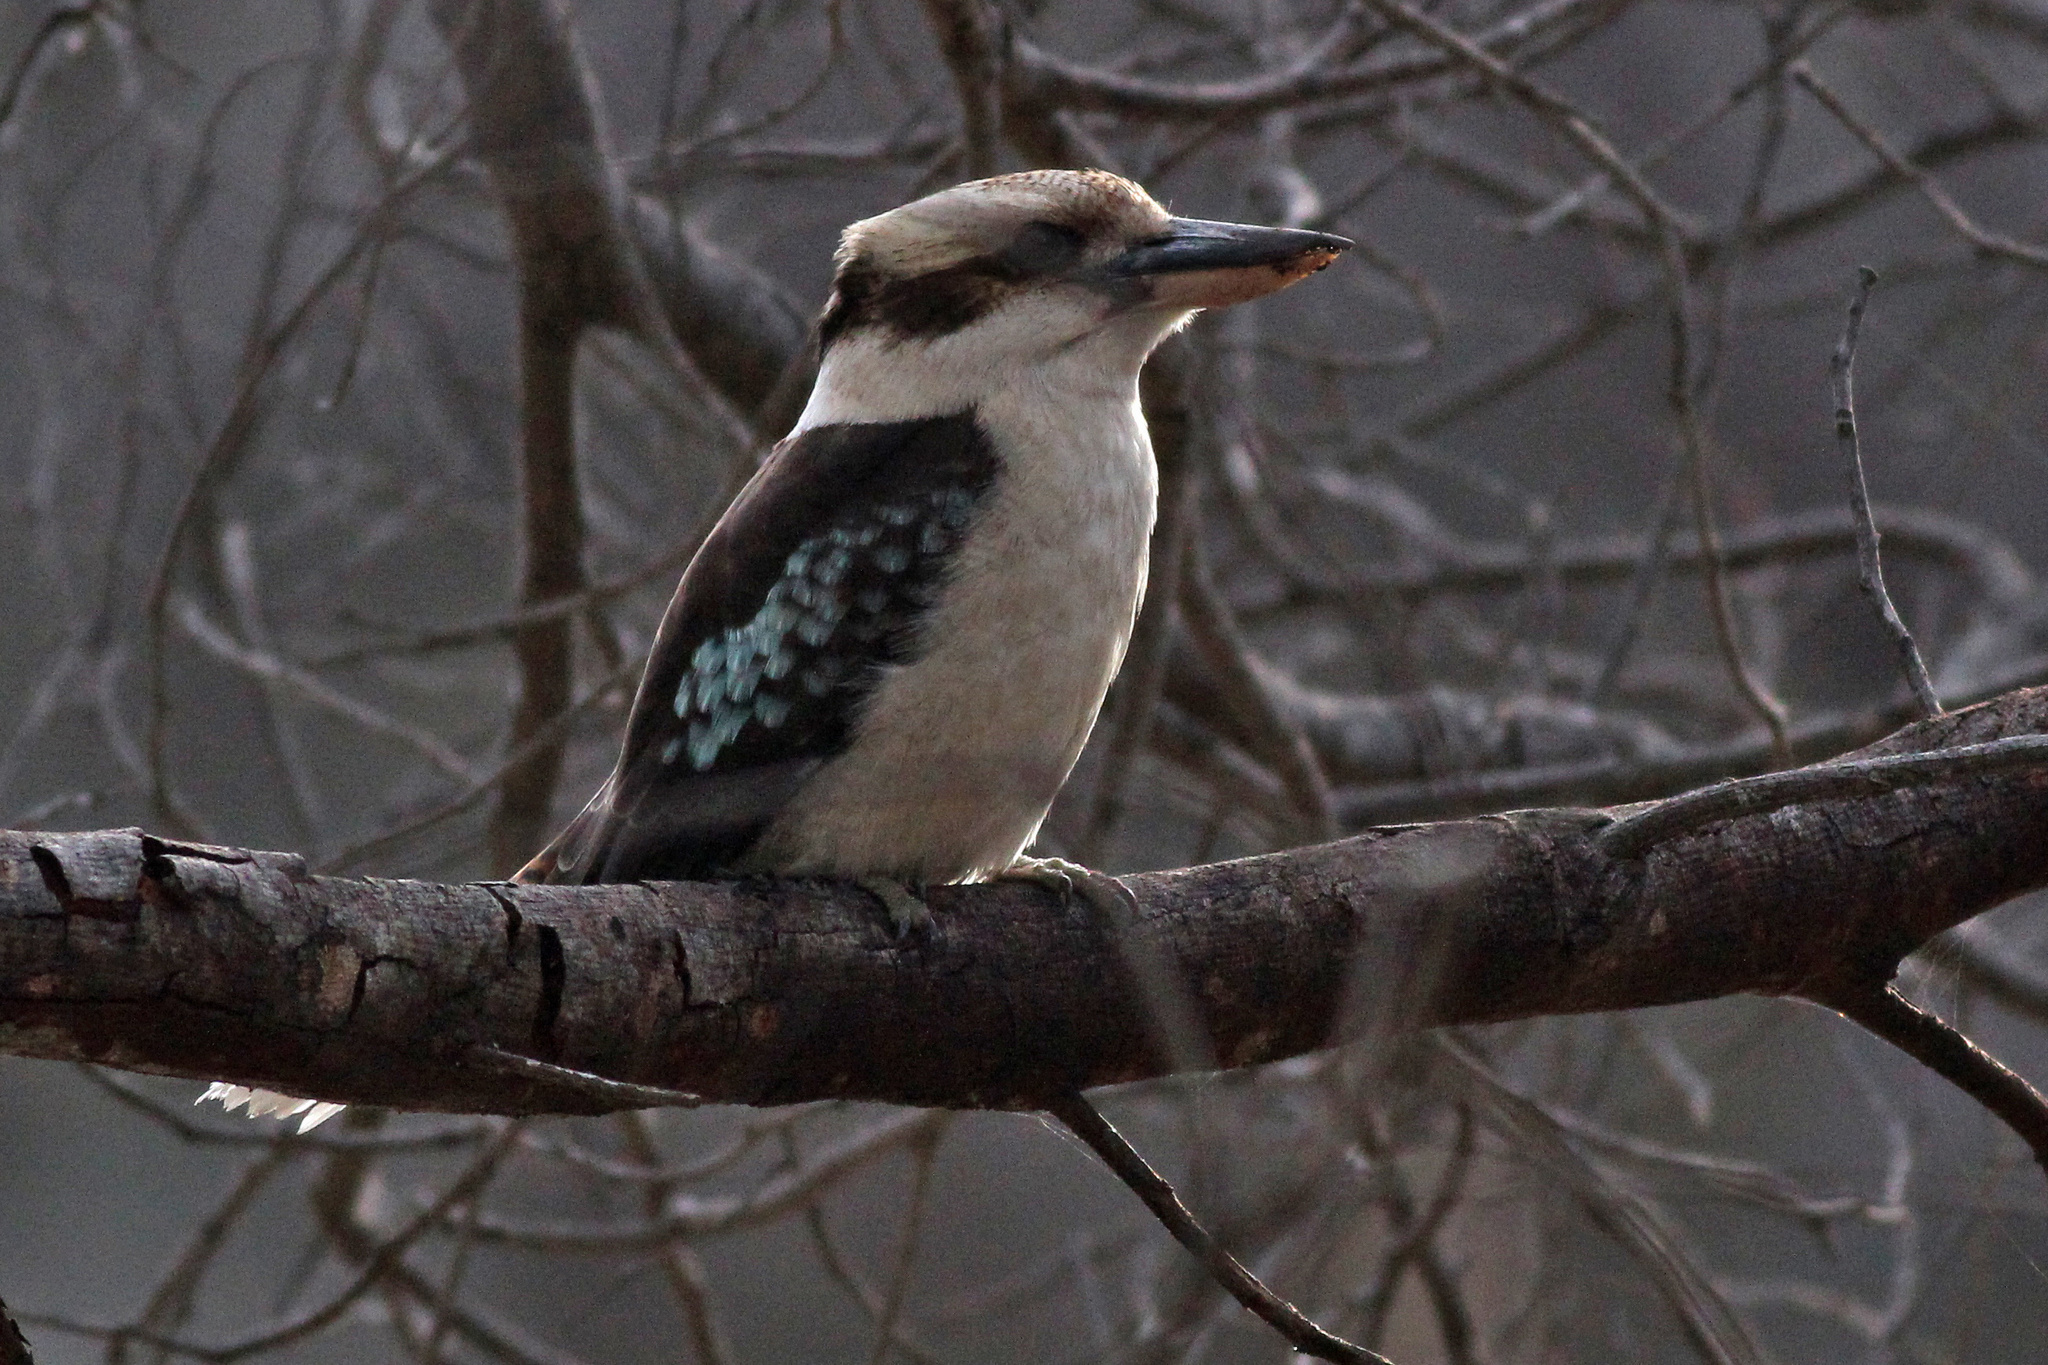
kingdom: Animalia
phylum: Chordata
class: Aves
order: Coraciiformes
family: Alcedinidae
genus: Dacelo
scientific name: Dacelo novaeguineae
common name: Laughing kookaburra
